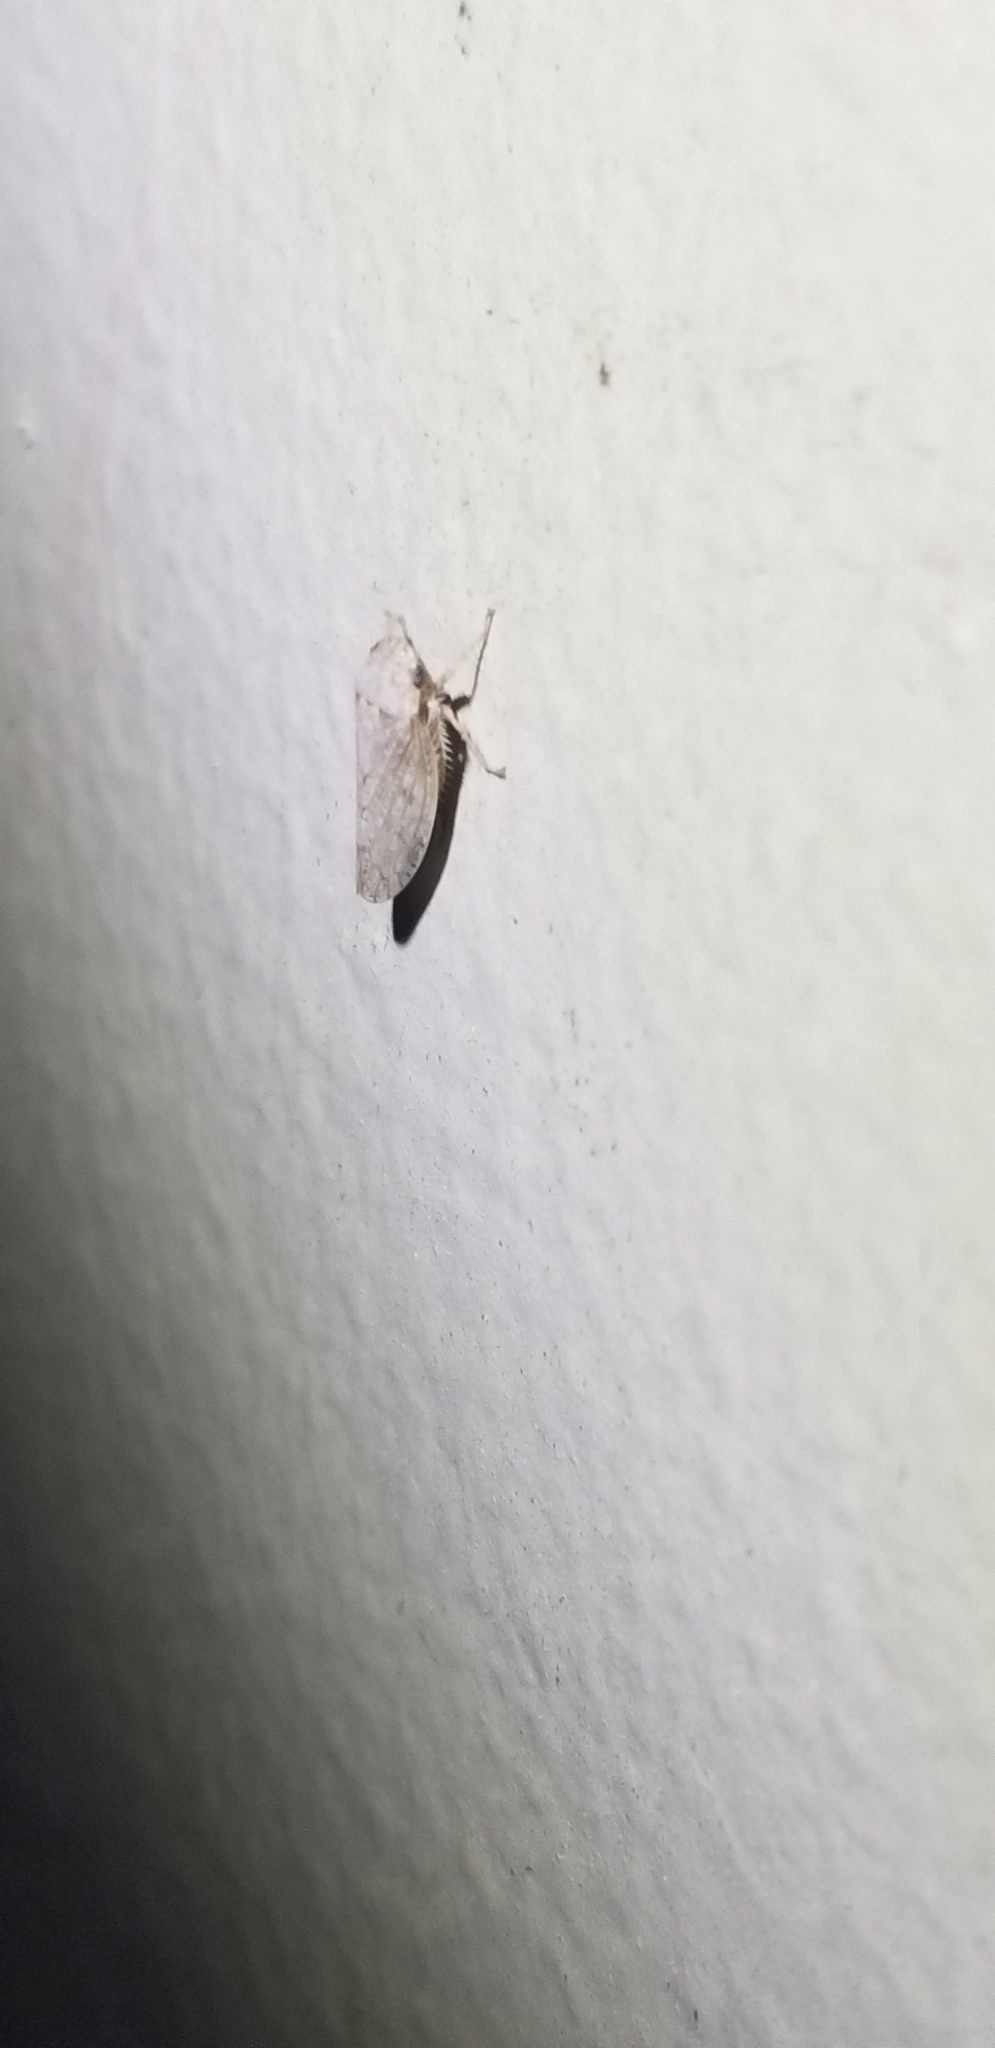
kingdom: Animalia
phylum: Arthropoda
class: Insecta
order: Hemiptera
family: Cicadellidae
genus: Curtara
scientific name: Curtara insularis
